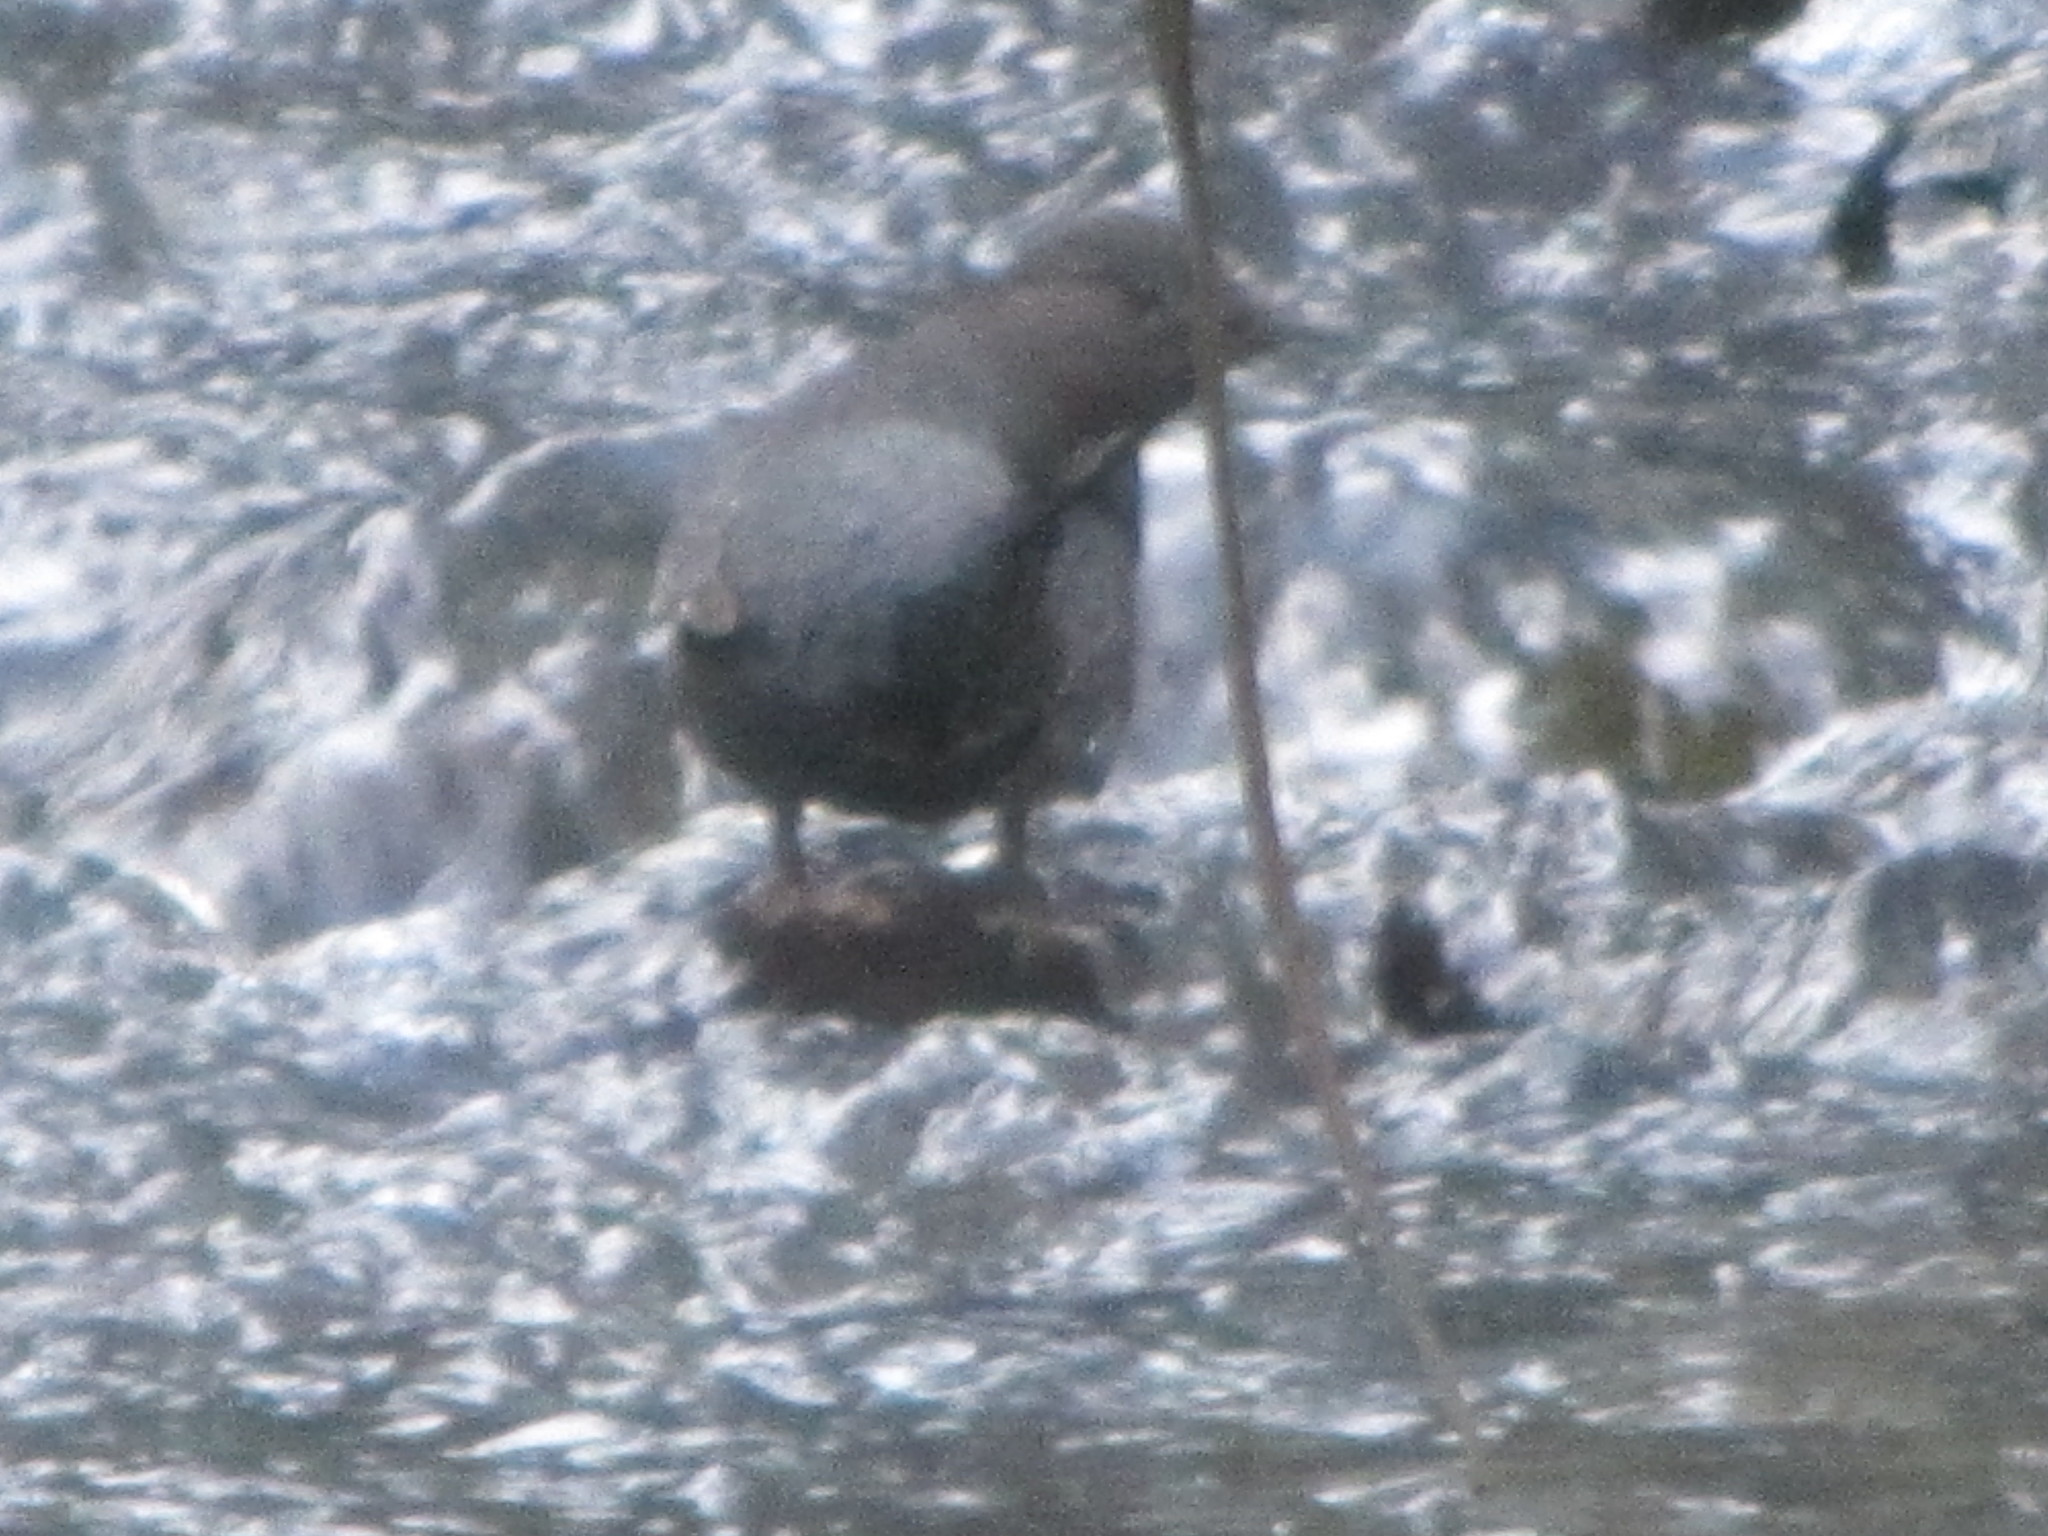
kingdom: Animalia
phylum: Chordata
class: Aves
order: Passeriformes
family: Cinclidae
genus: Cinclus
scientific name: Cinclus mexicanus
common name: American dipper
